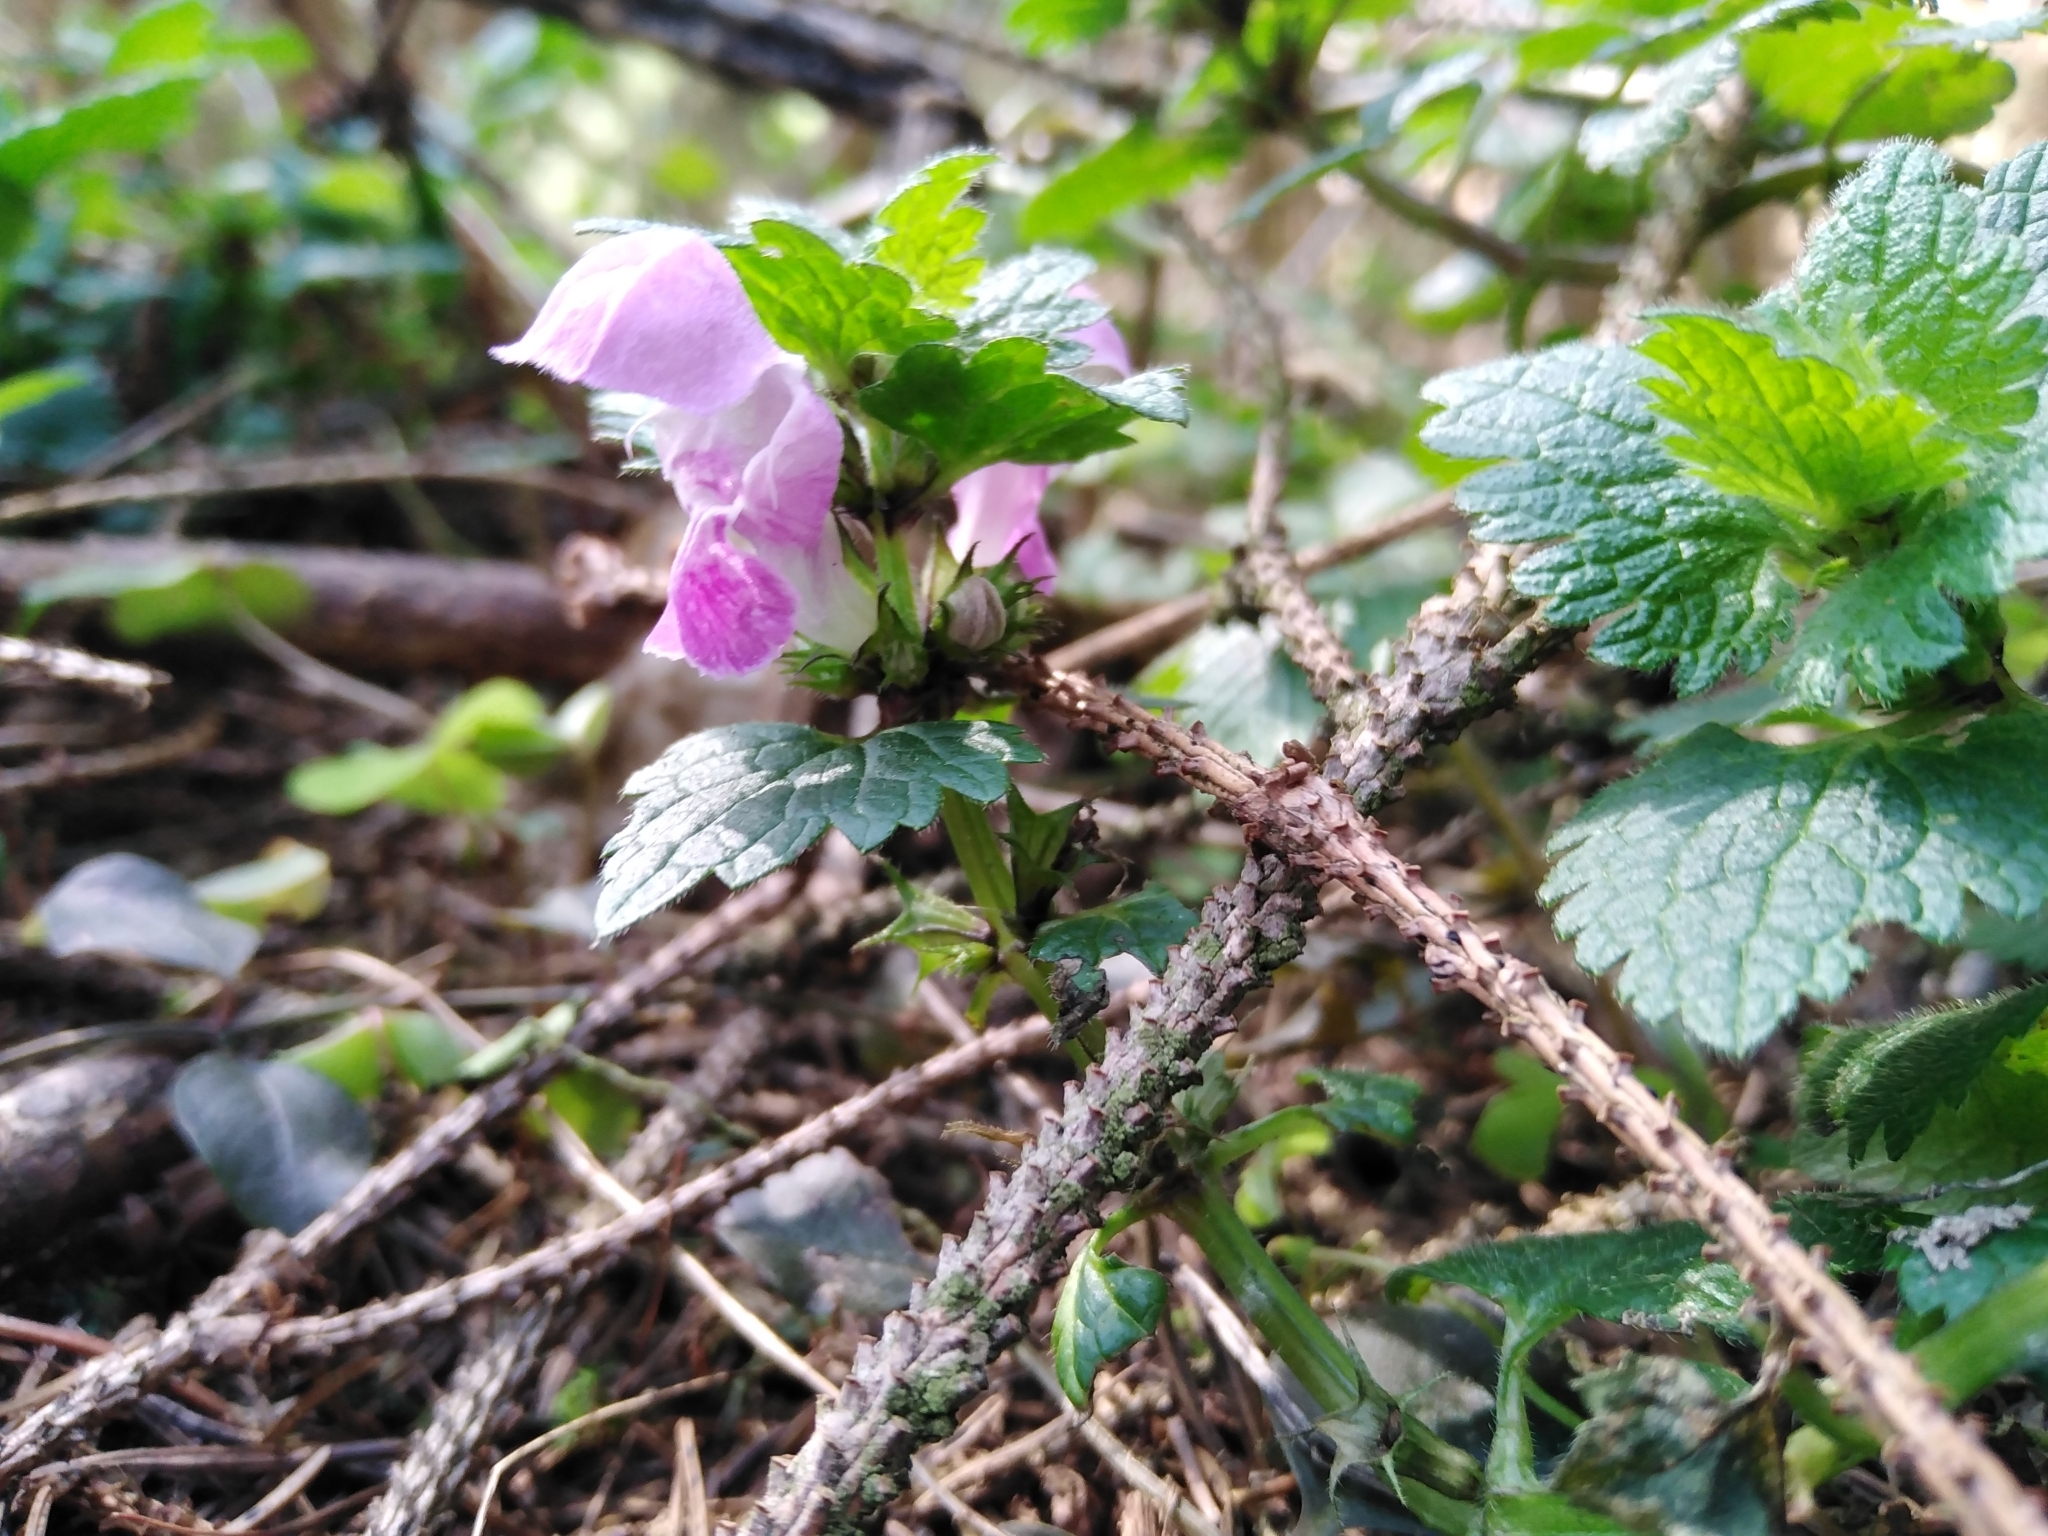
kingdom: Plantae
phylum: Tracheophyta
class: Magnoliopsida
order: Lamiales
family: Lamiaceae
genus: Lamium
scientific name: Lamium maculatum
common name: Spotted dead-nettle
